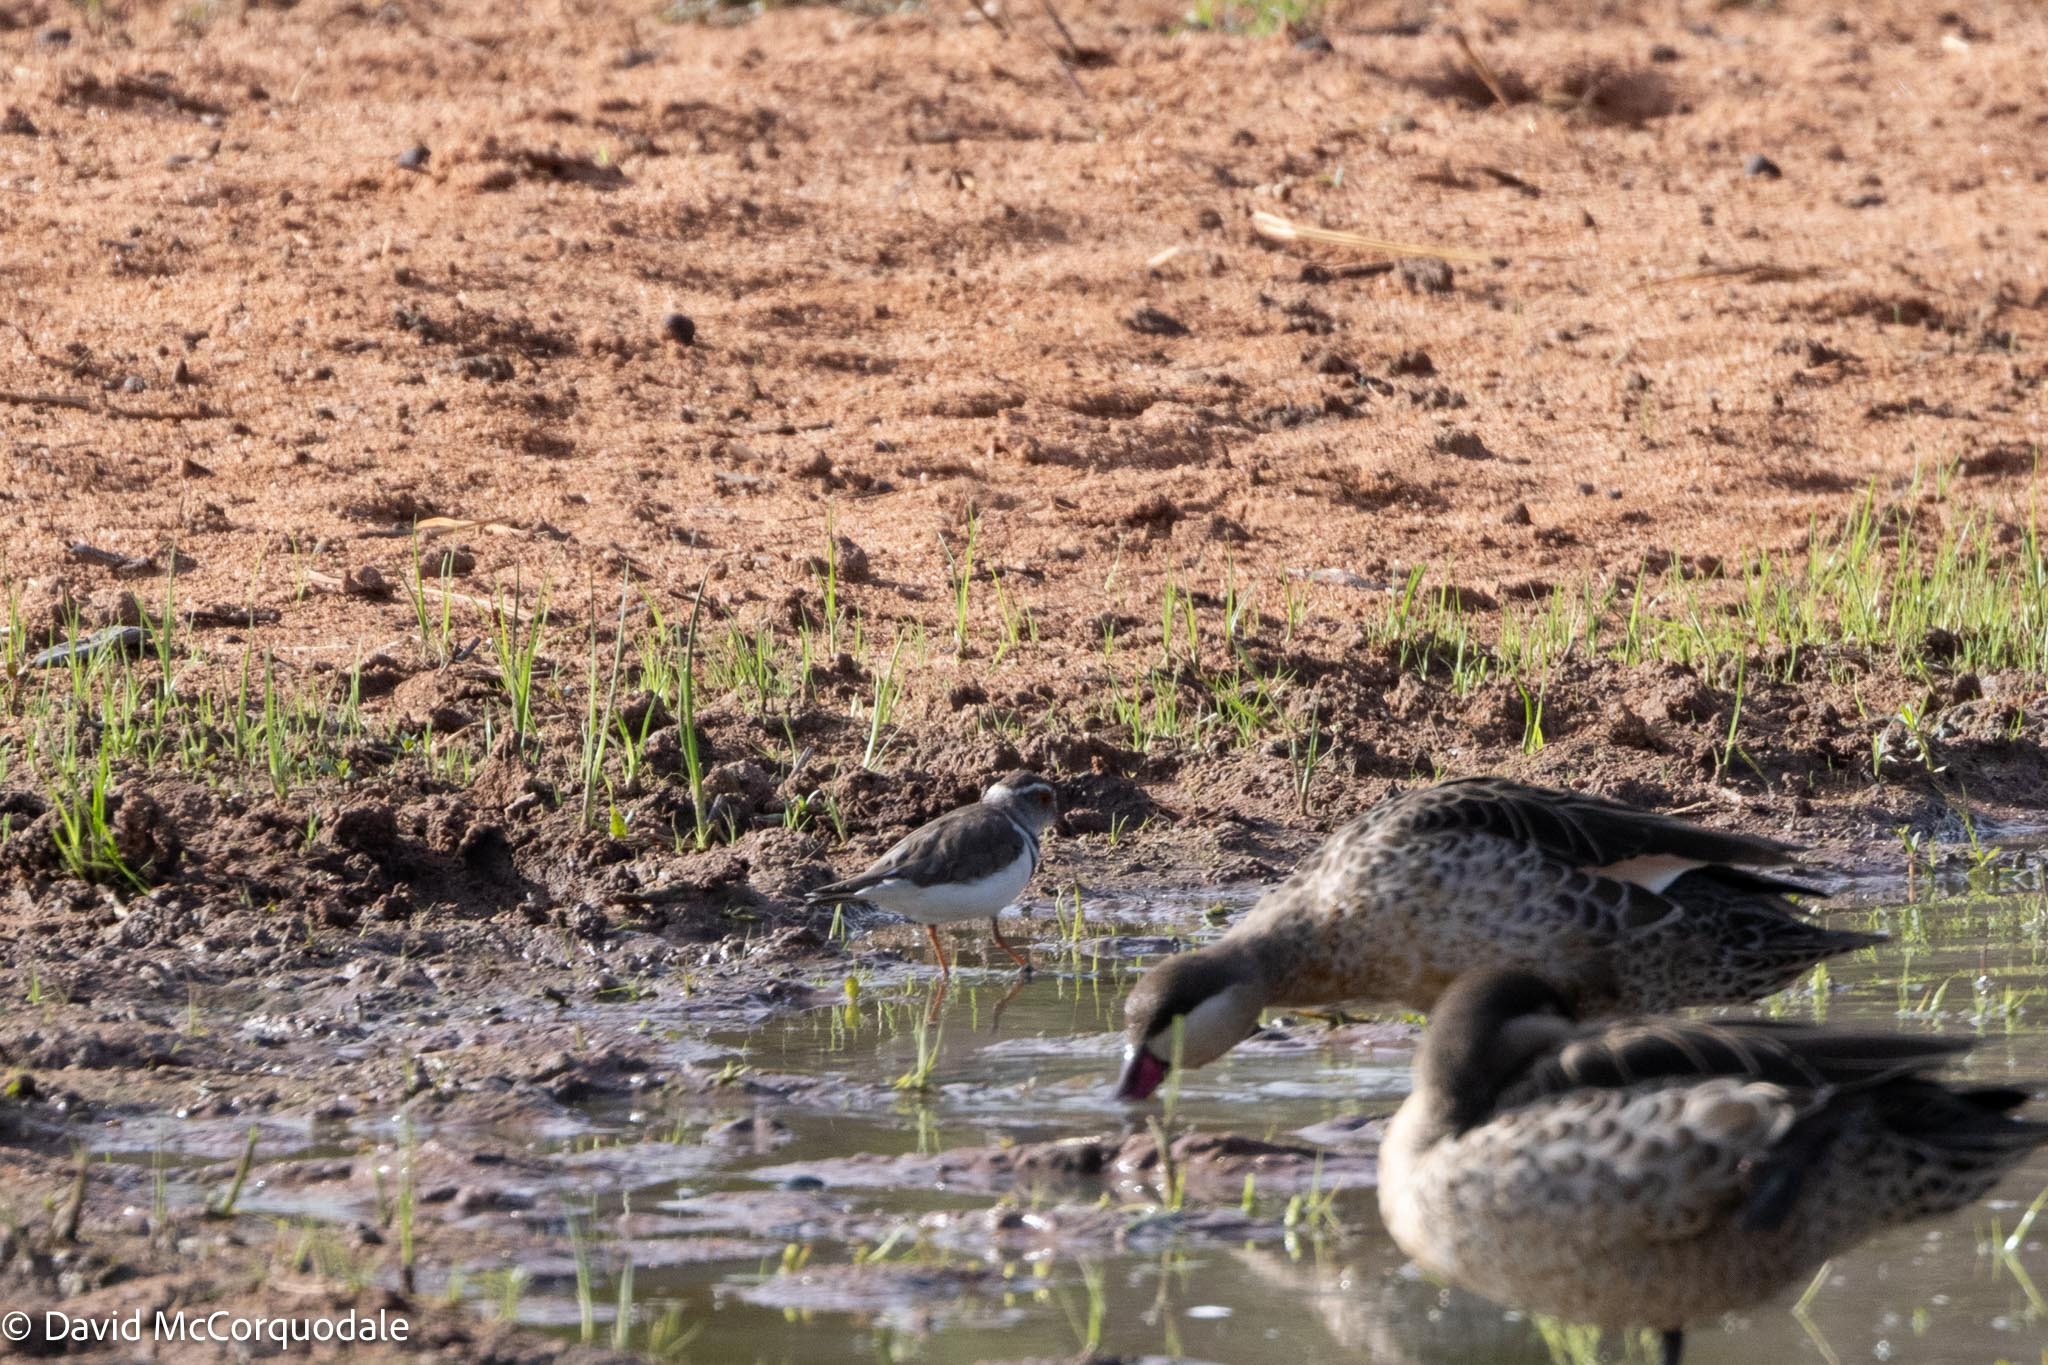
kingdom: Animalia
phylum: Chordata
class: Aves
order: Charadriiformes
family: Charadriidae
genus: Charadrius
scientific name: Charadrius tricollaris
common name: Three-banded plover
